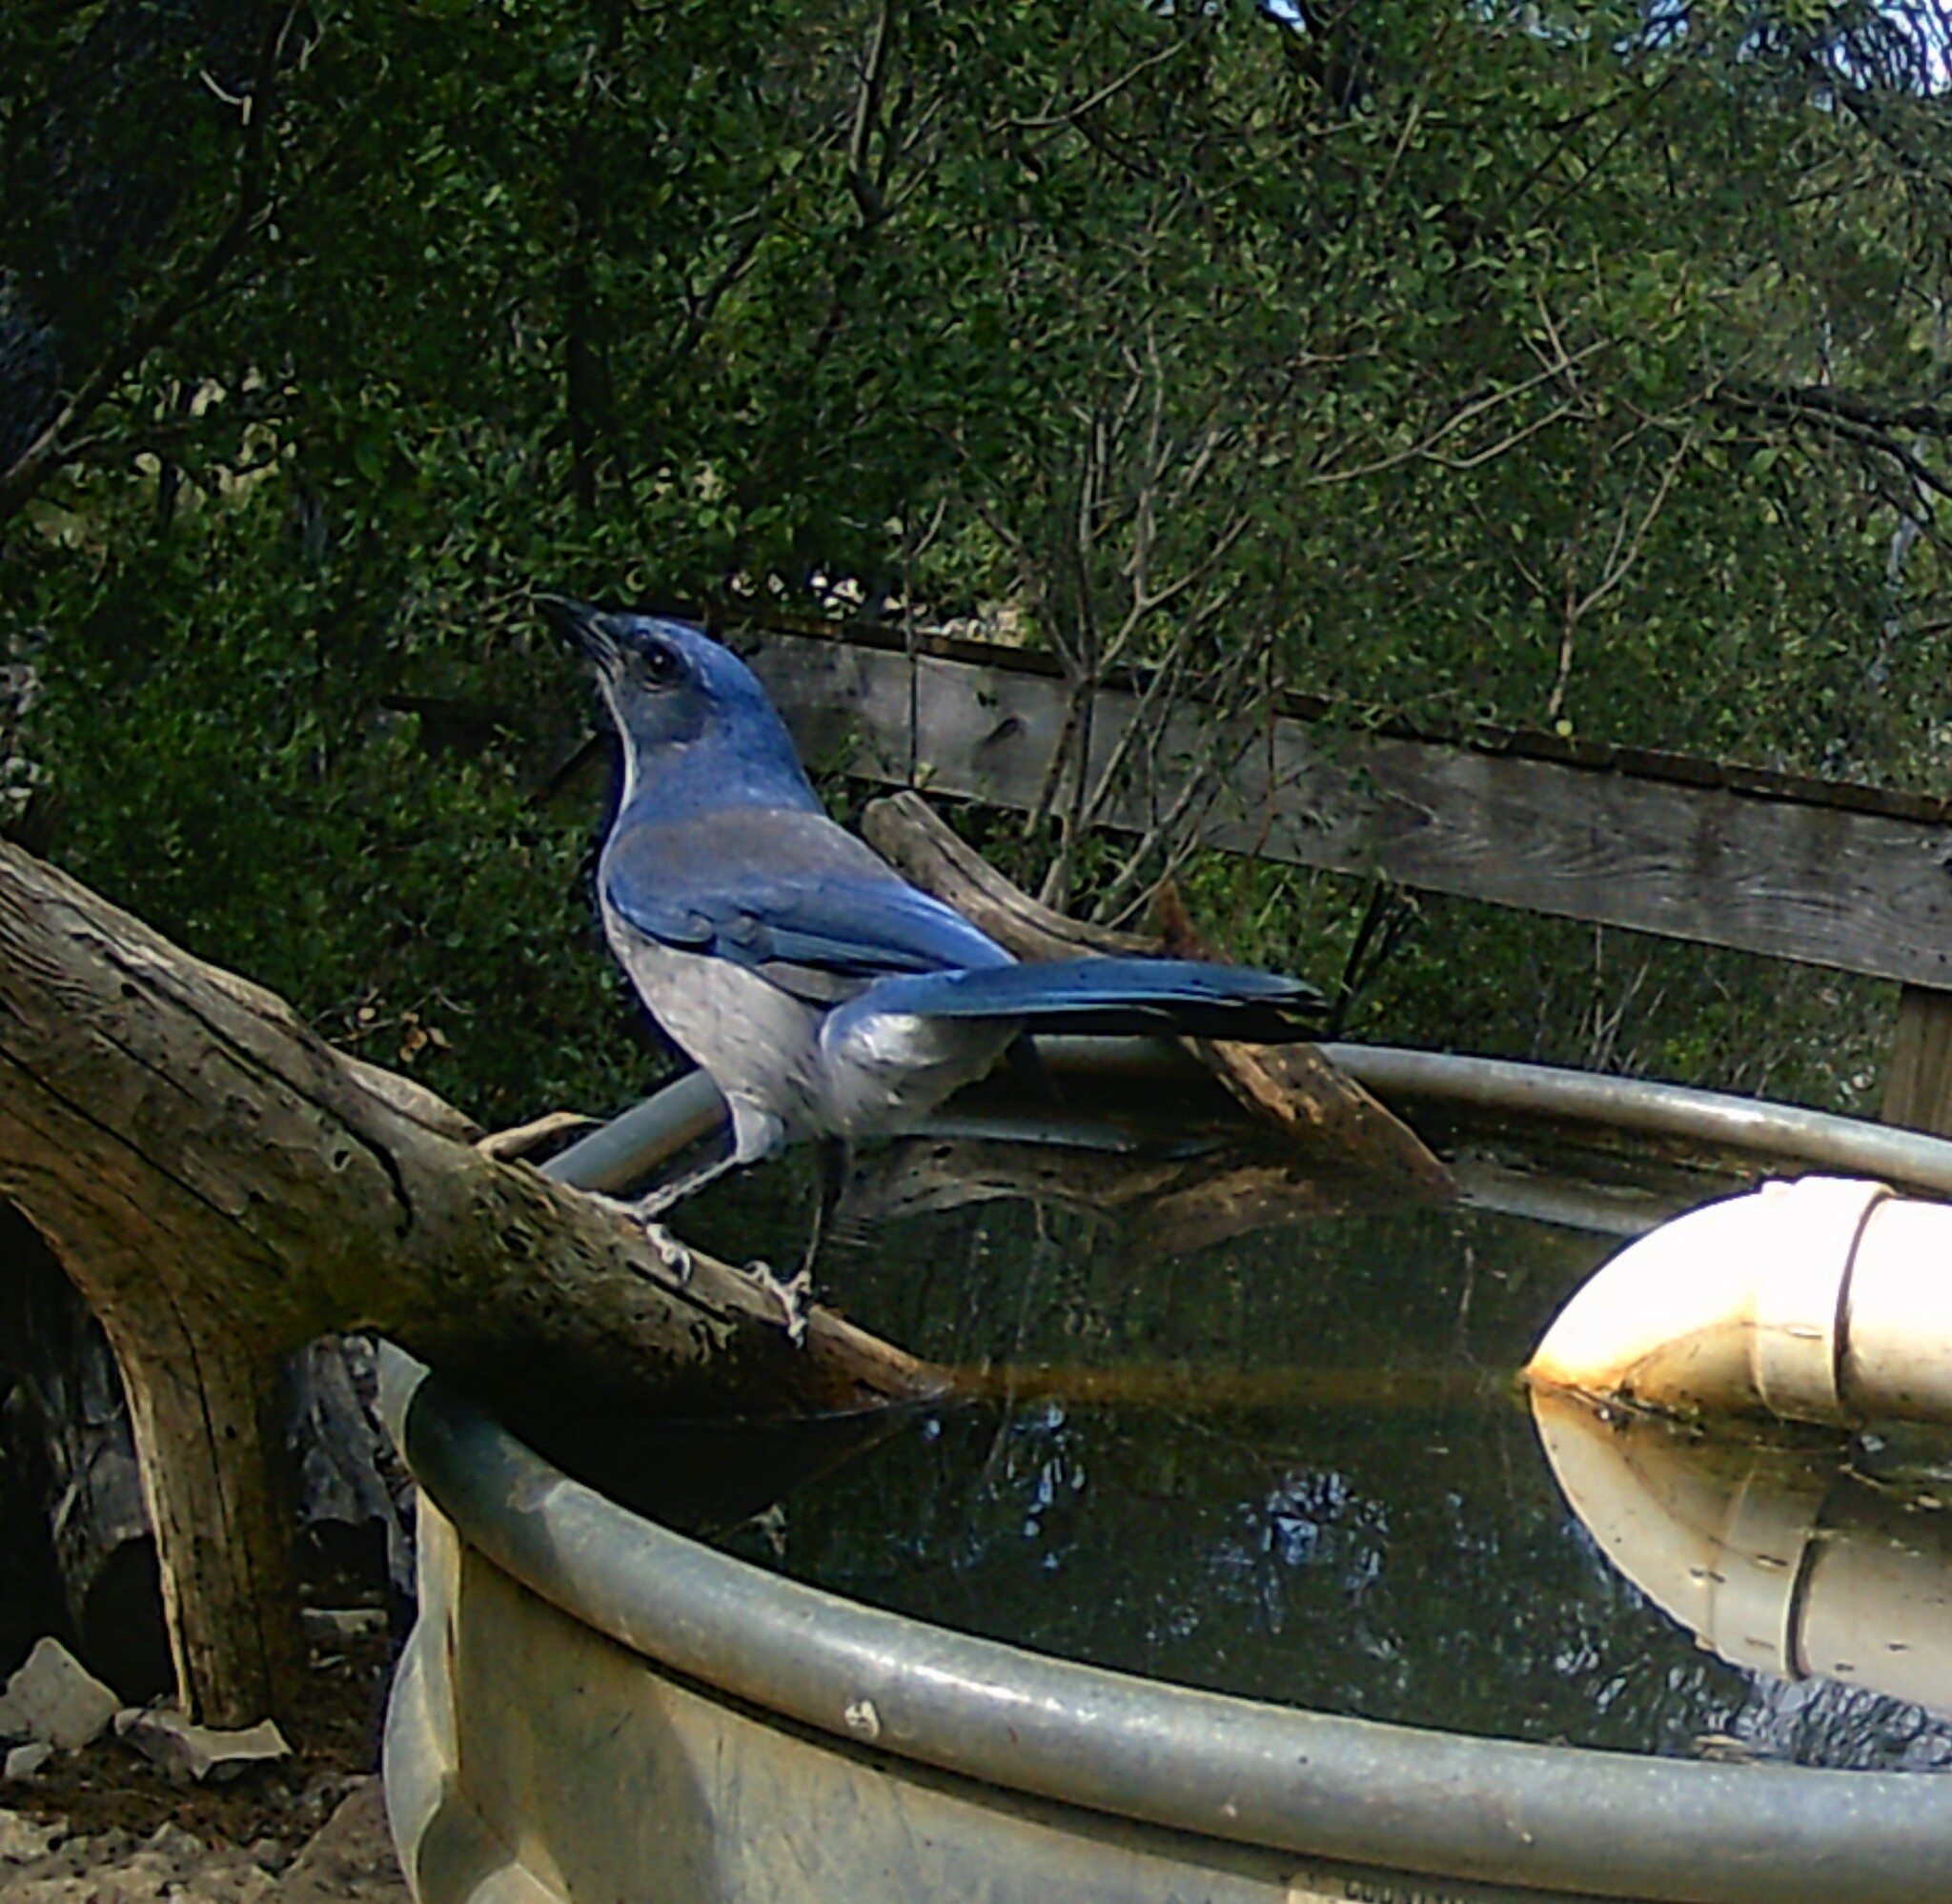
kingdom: Animalia
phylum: Chordata
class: Aves
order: Passeriformes
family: Corvidae
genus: Aphelocoma
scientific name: Aphelocoma woodhouseii
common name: Woodhouse's scrub-jay
